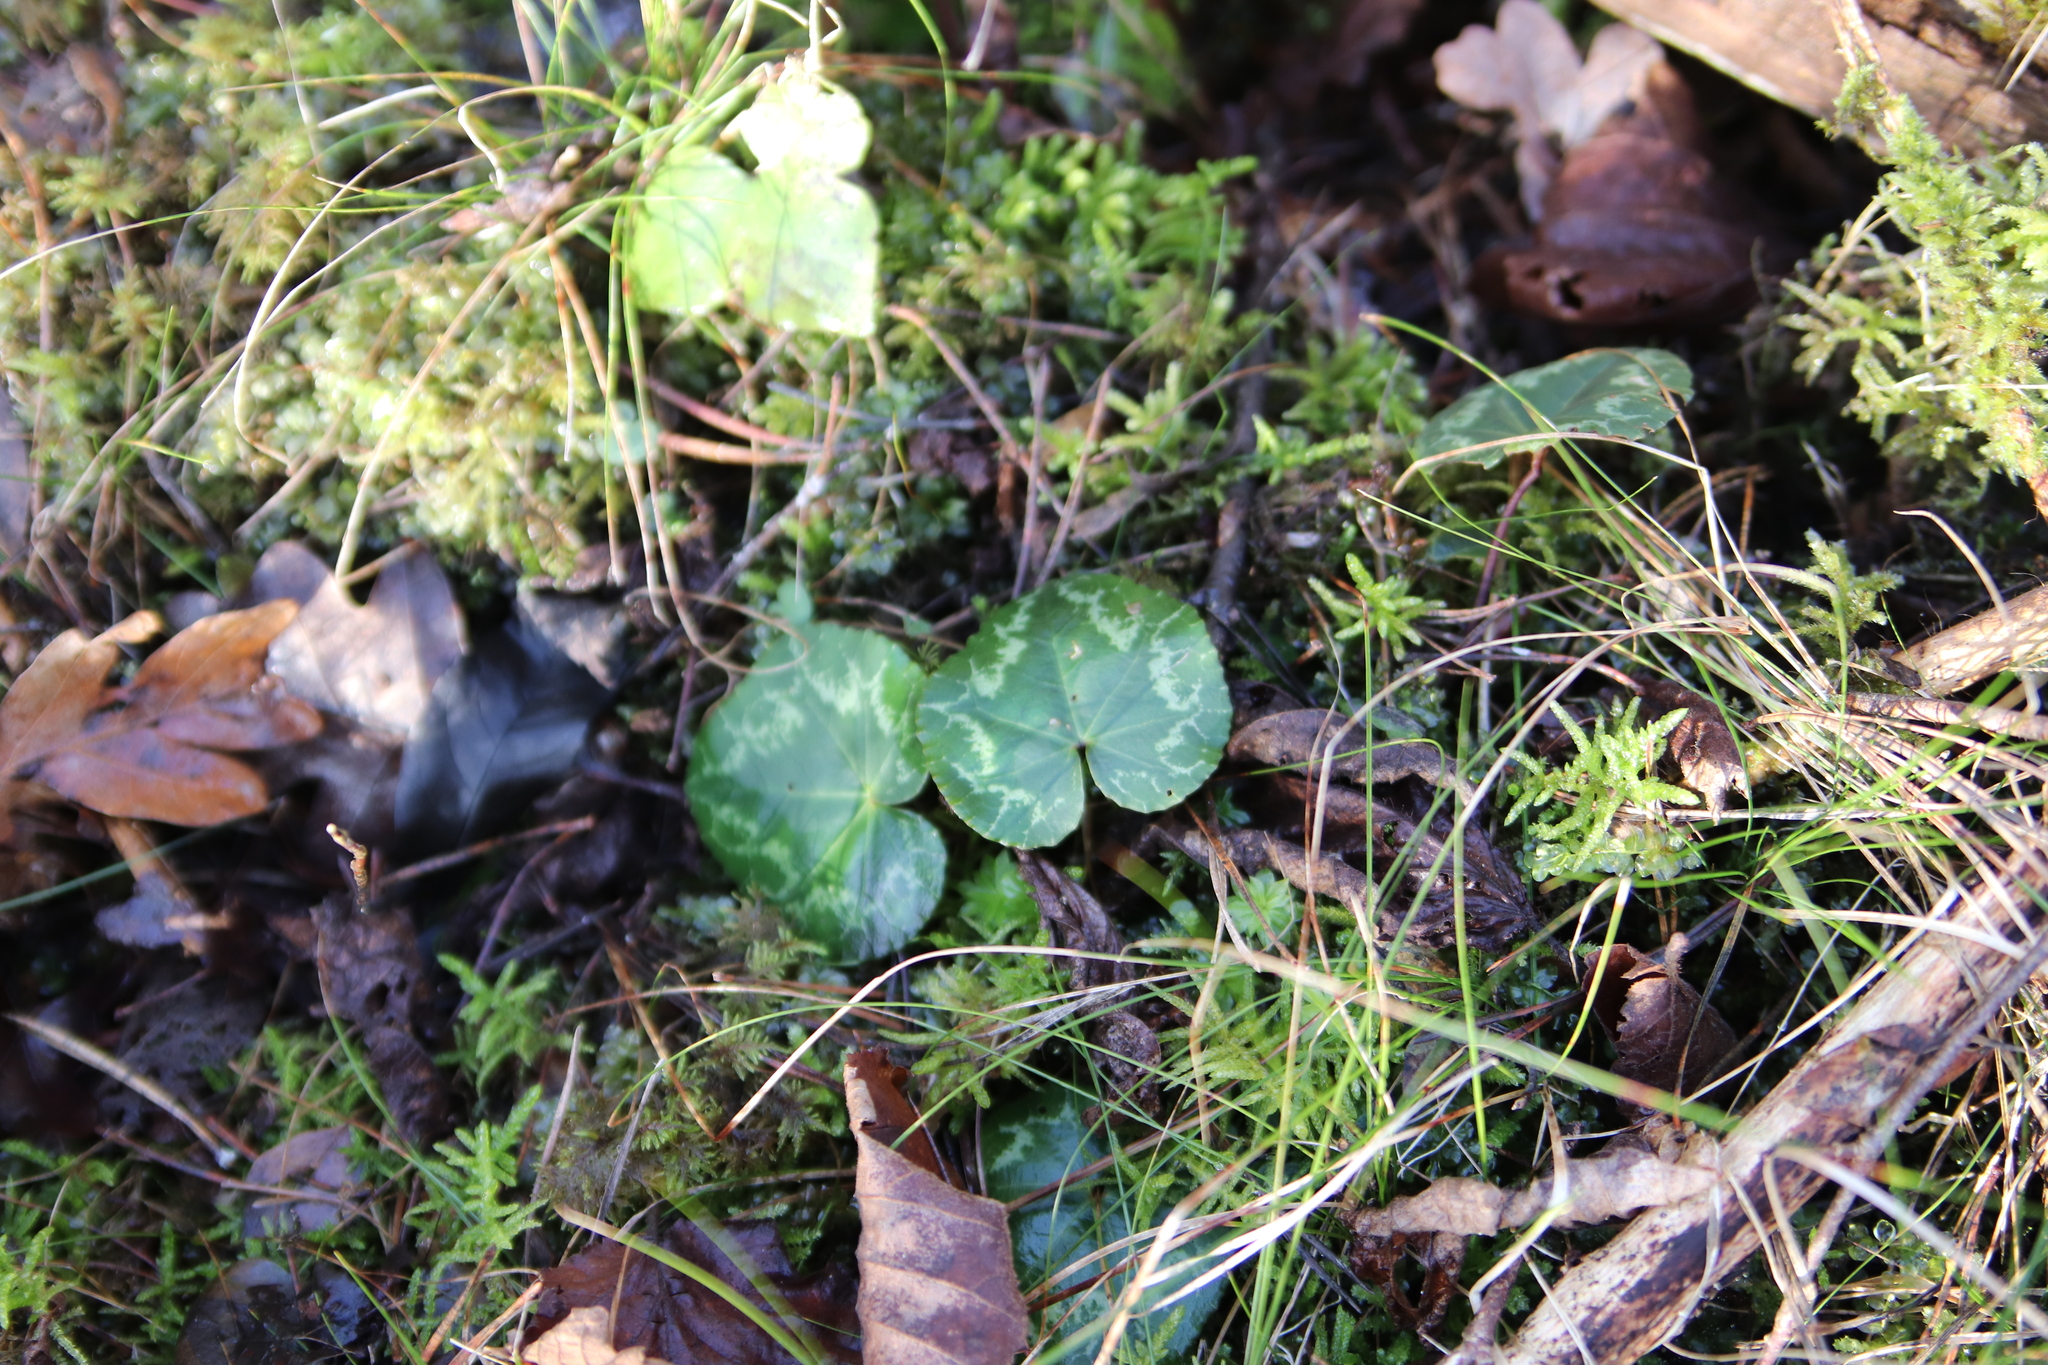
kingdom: Plantae
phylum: Tracheophyta
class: Magnoliopsida
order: Ericales
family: Primulaceae
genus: Cyclamen
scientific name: Cyclamen purpurascens
